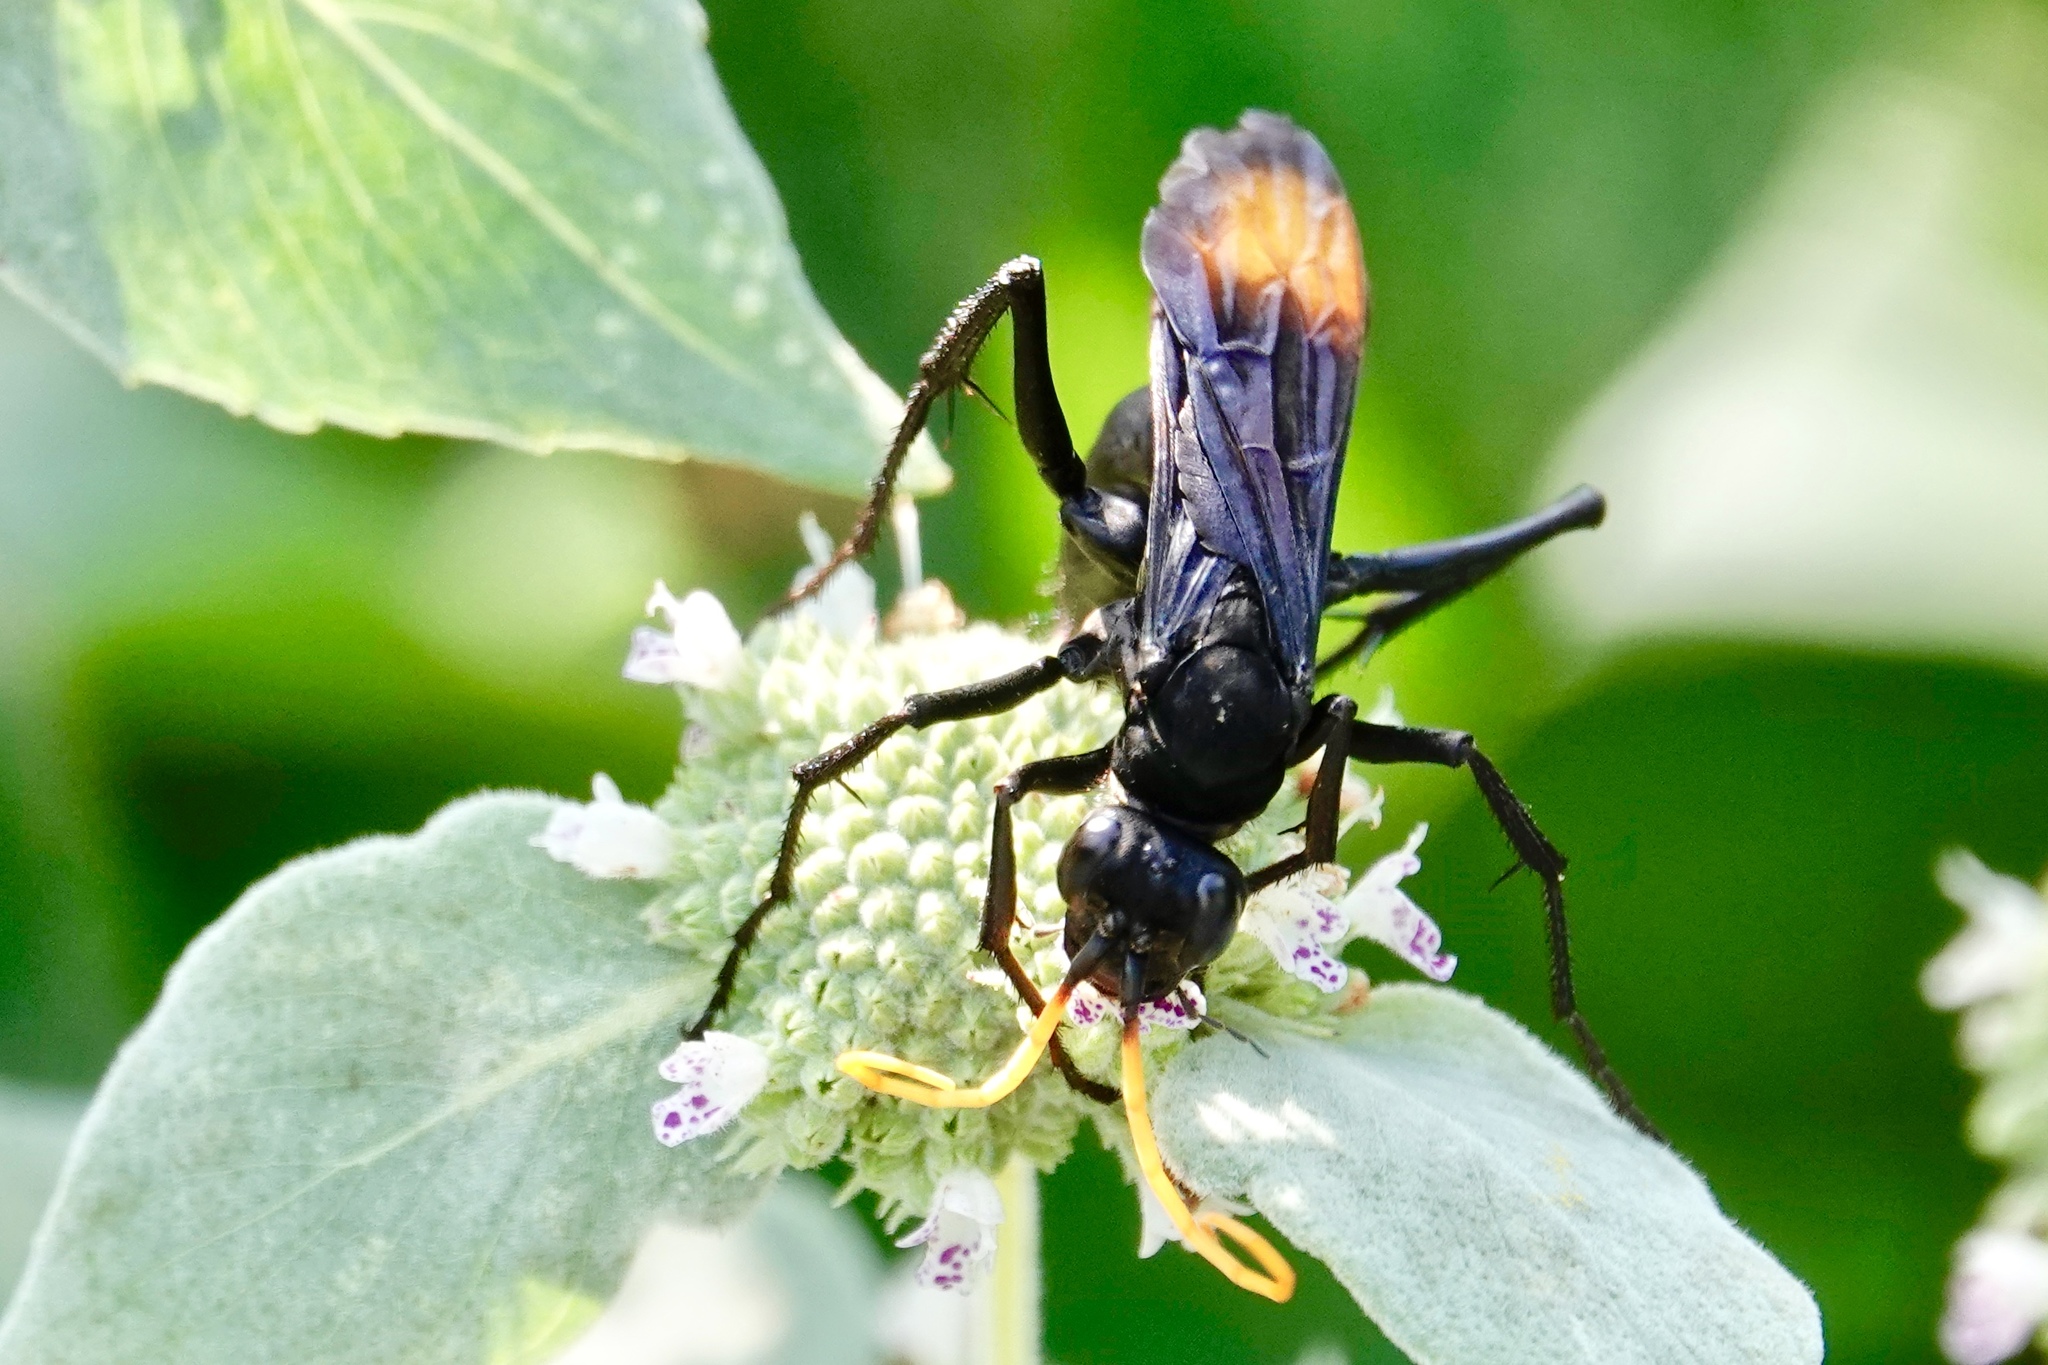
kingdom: Animalia
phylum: Arthropoda
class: Insecta
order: Hymenoptera
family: Pompilidae
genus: Entypus
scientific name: Entypus unifasciatus
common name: Eastern tawny-horned spider wasp
